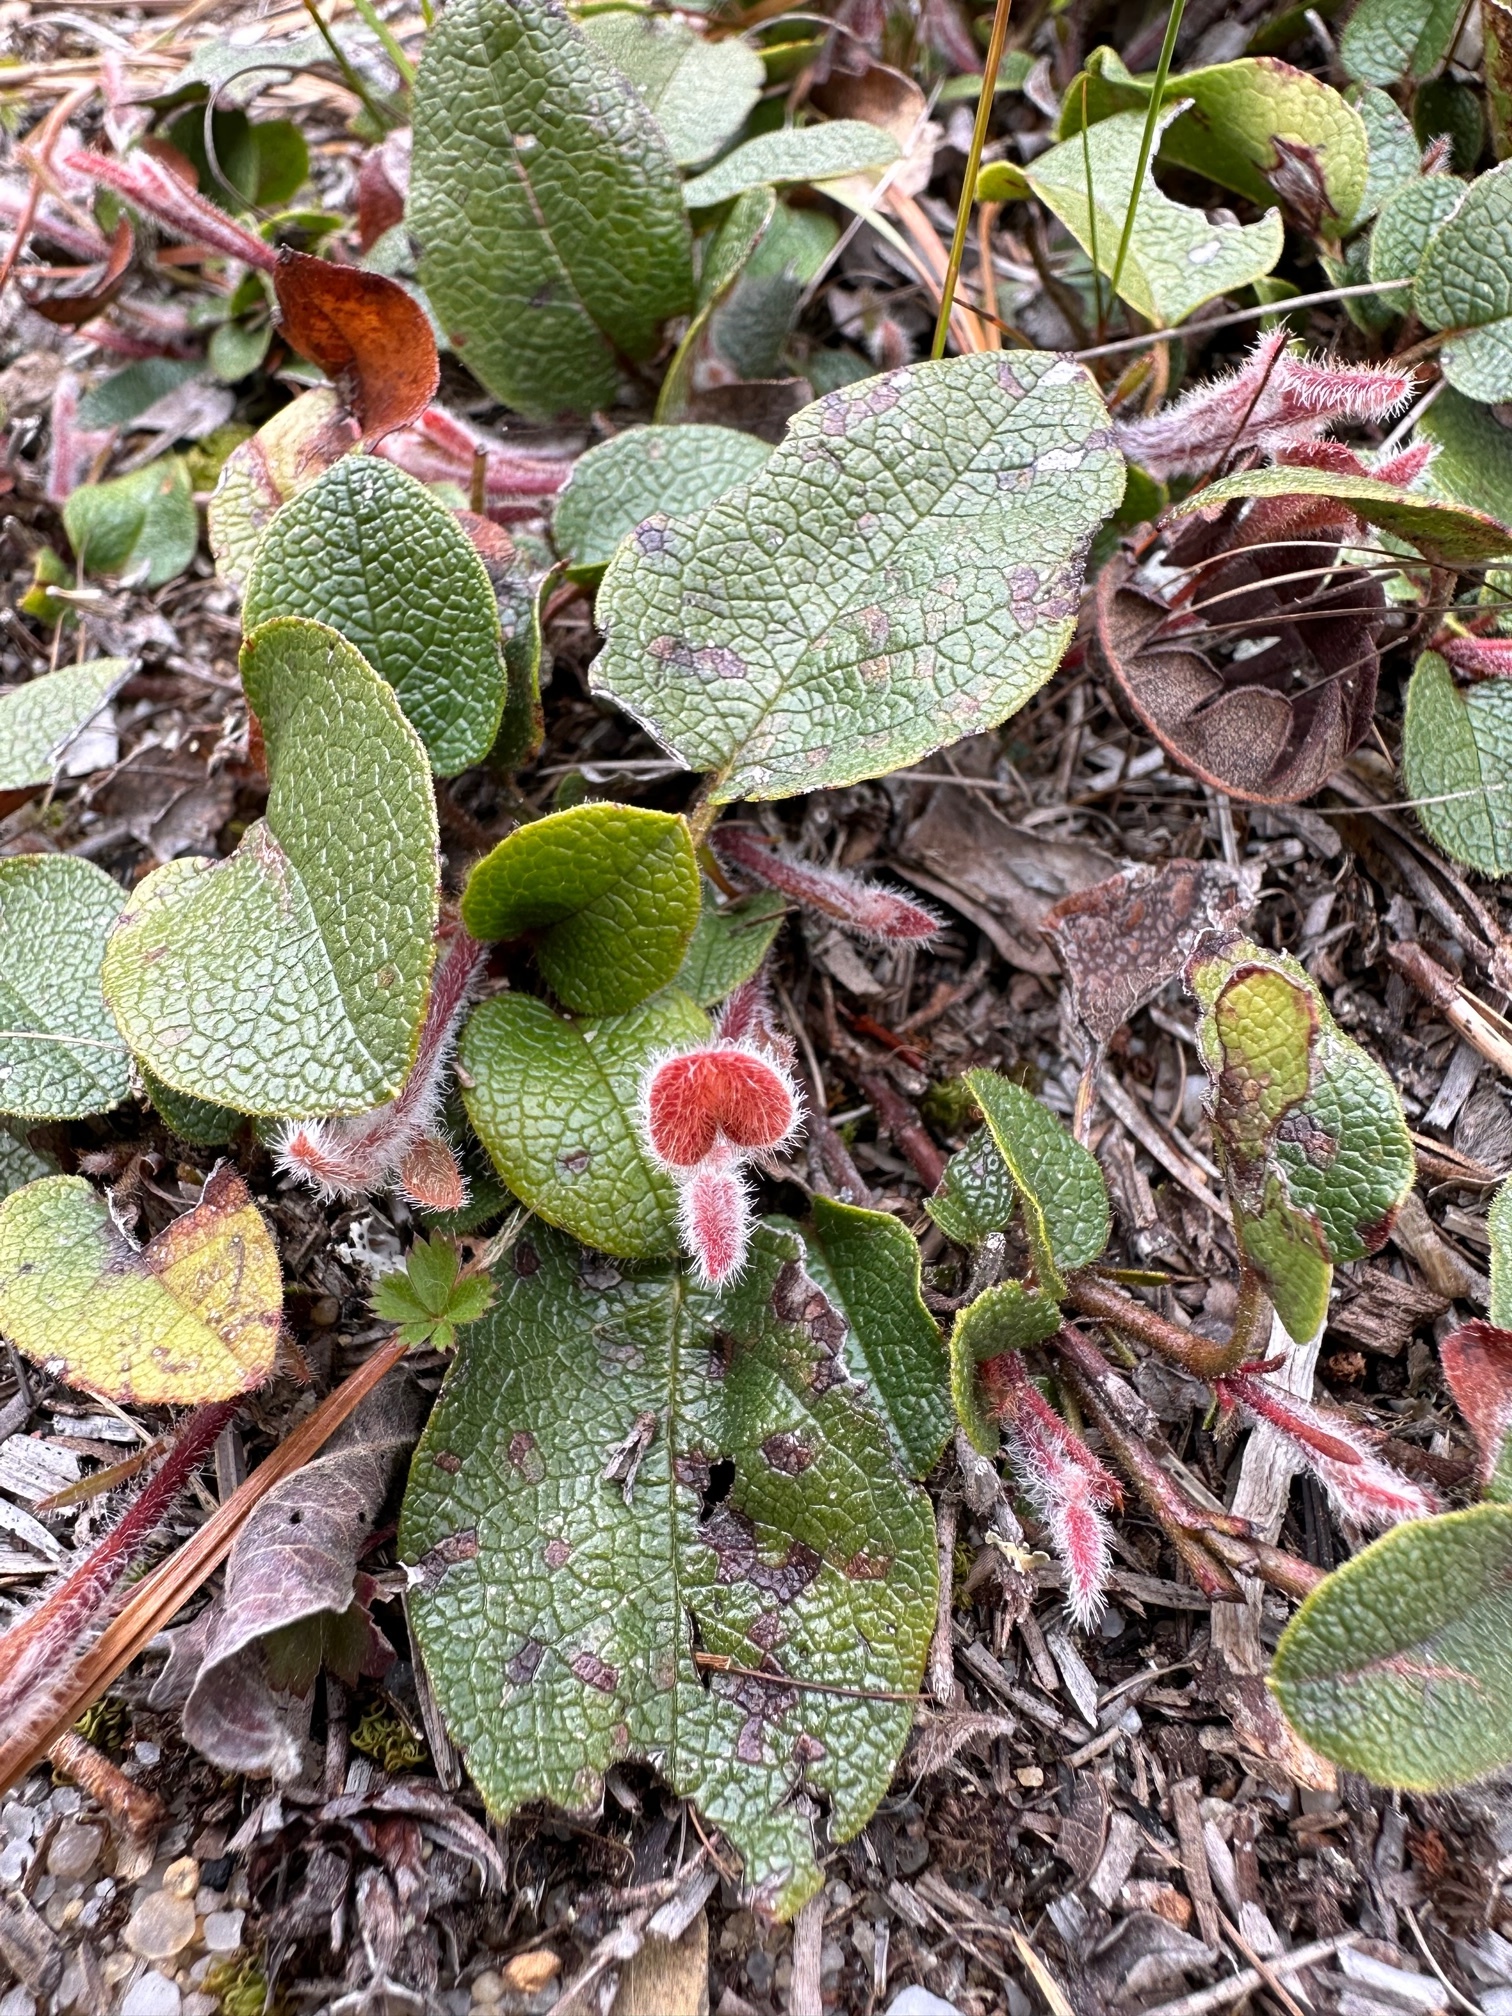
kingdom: Plantae
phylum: Tracheophyta
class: Magnoliopsida
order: Ericales
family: Ericaceae
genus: Epigaea
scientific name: Epigaea repens
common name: Gravelroot
